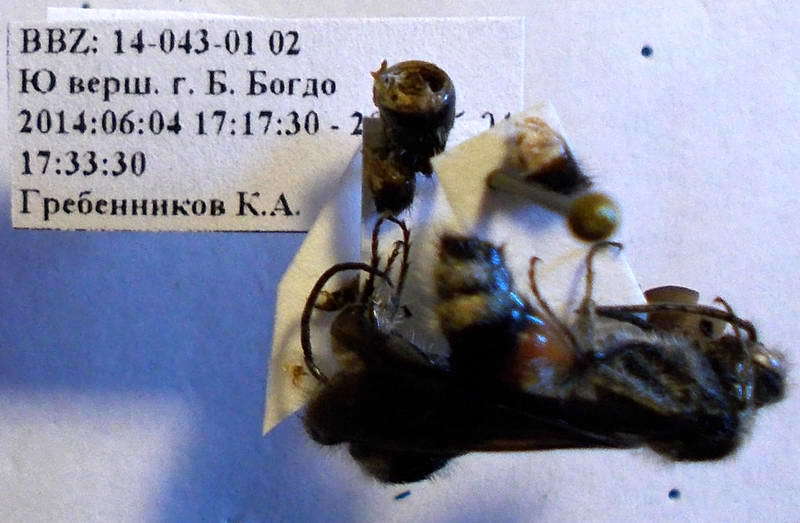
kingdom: Animalia
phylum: Arthropoda
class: Insecta
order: Hymenoptera
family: Mutillidae
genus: Nemka
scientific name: Nemka viduata
